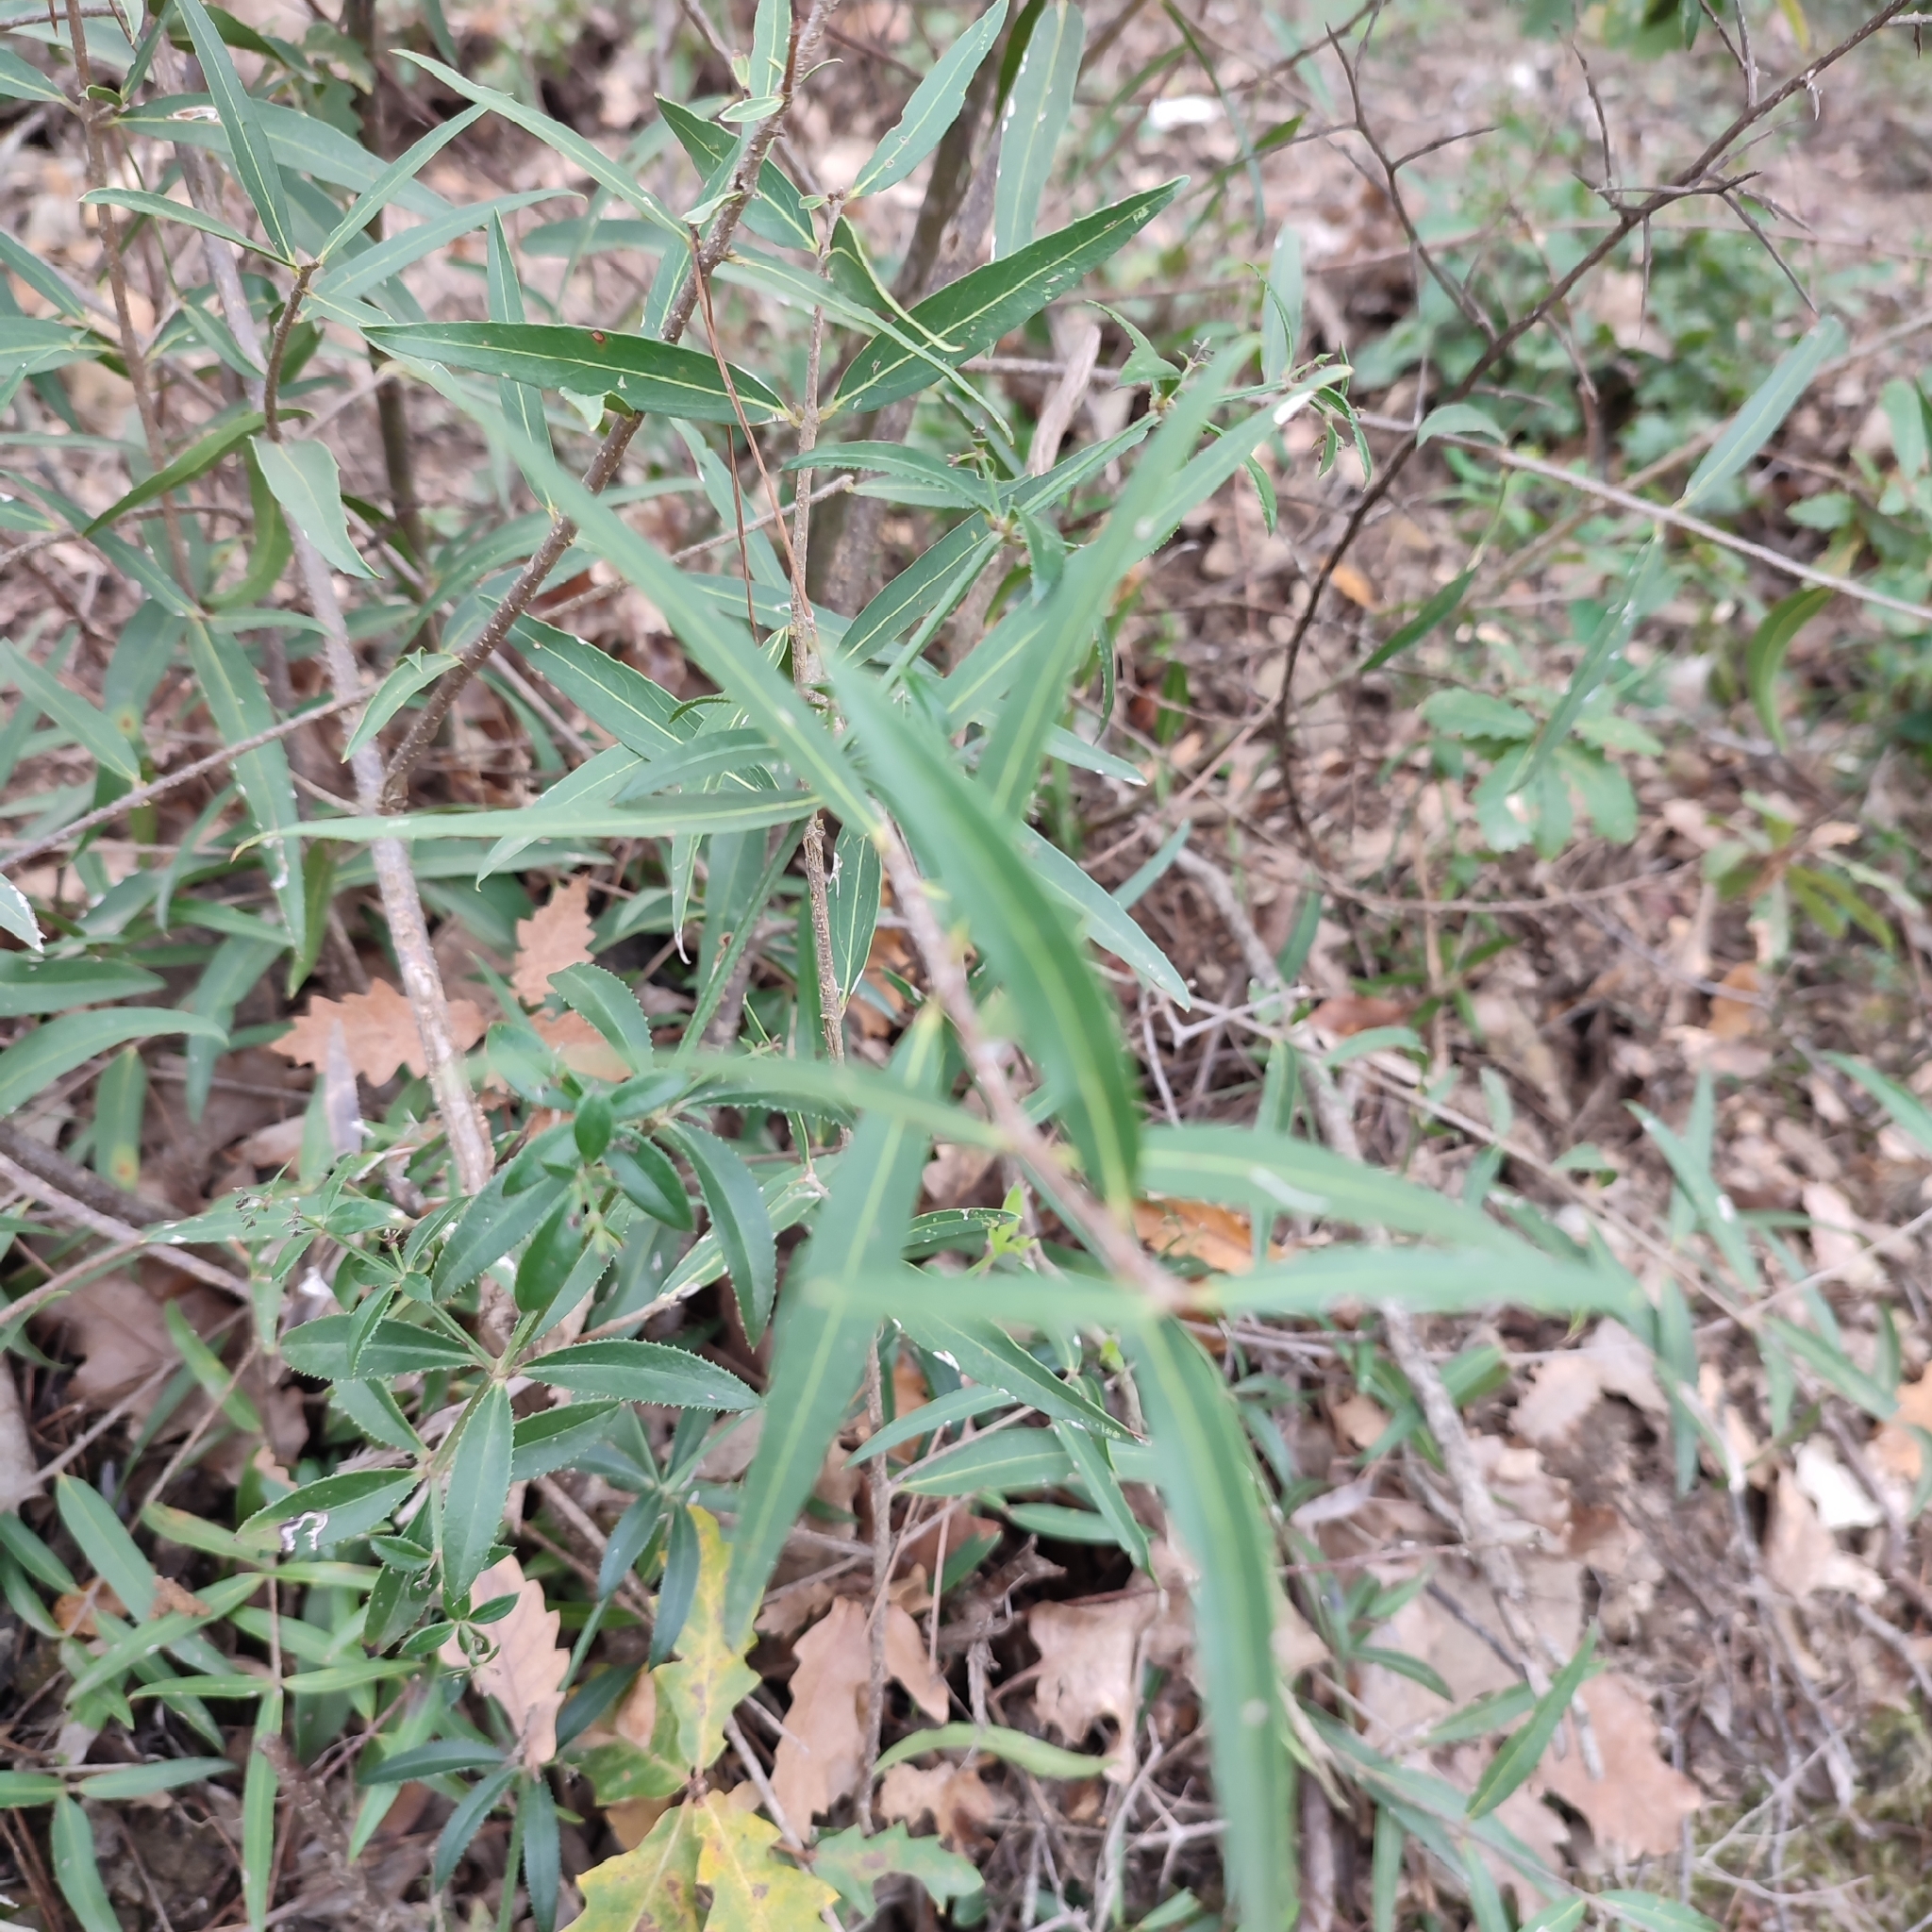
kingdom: Plantae
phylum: Tracheophyta
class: Magnoliopsida
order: Lamiales
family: Oleaceae
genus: Phillyrea
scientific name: Phillyrea angustifolia
